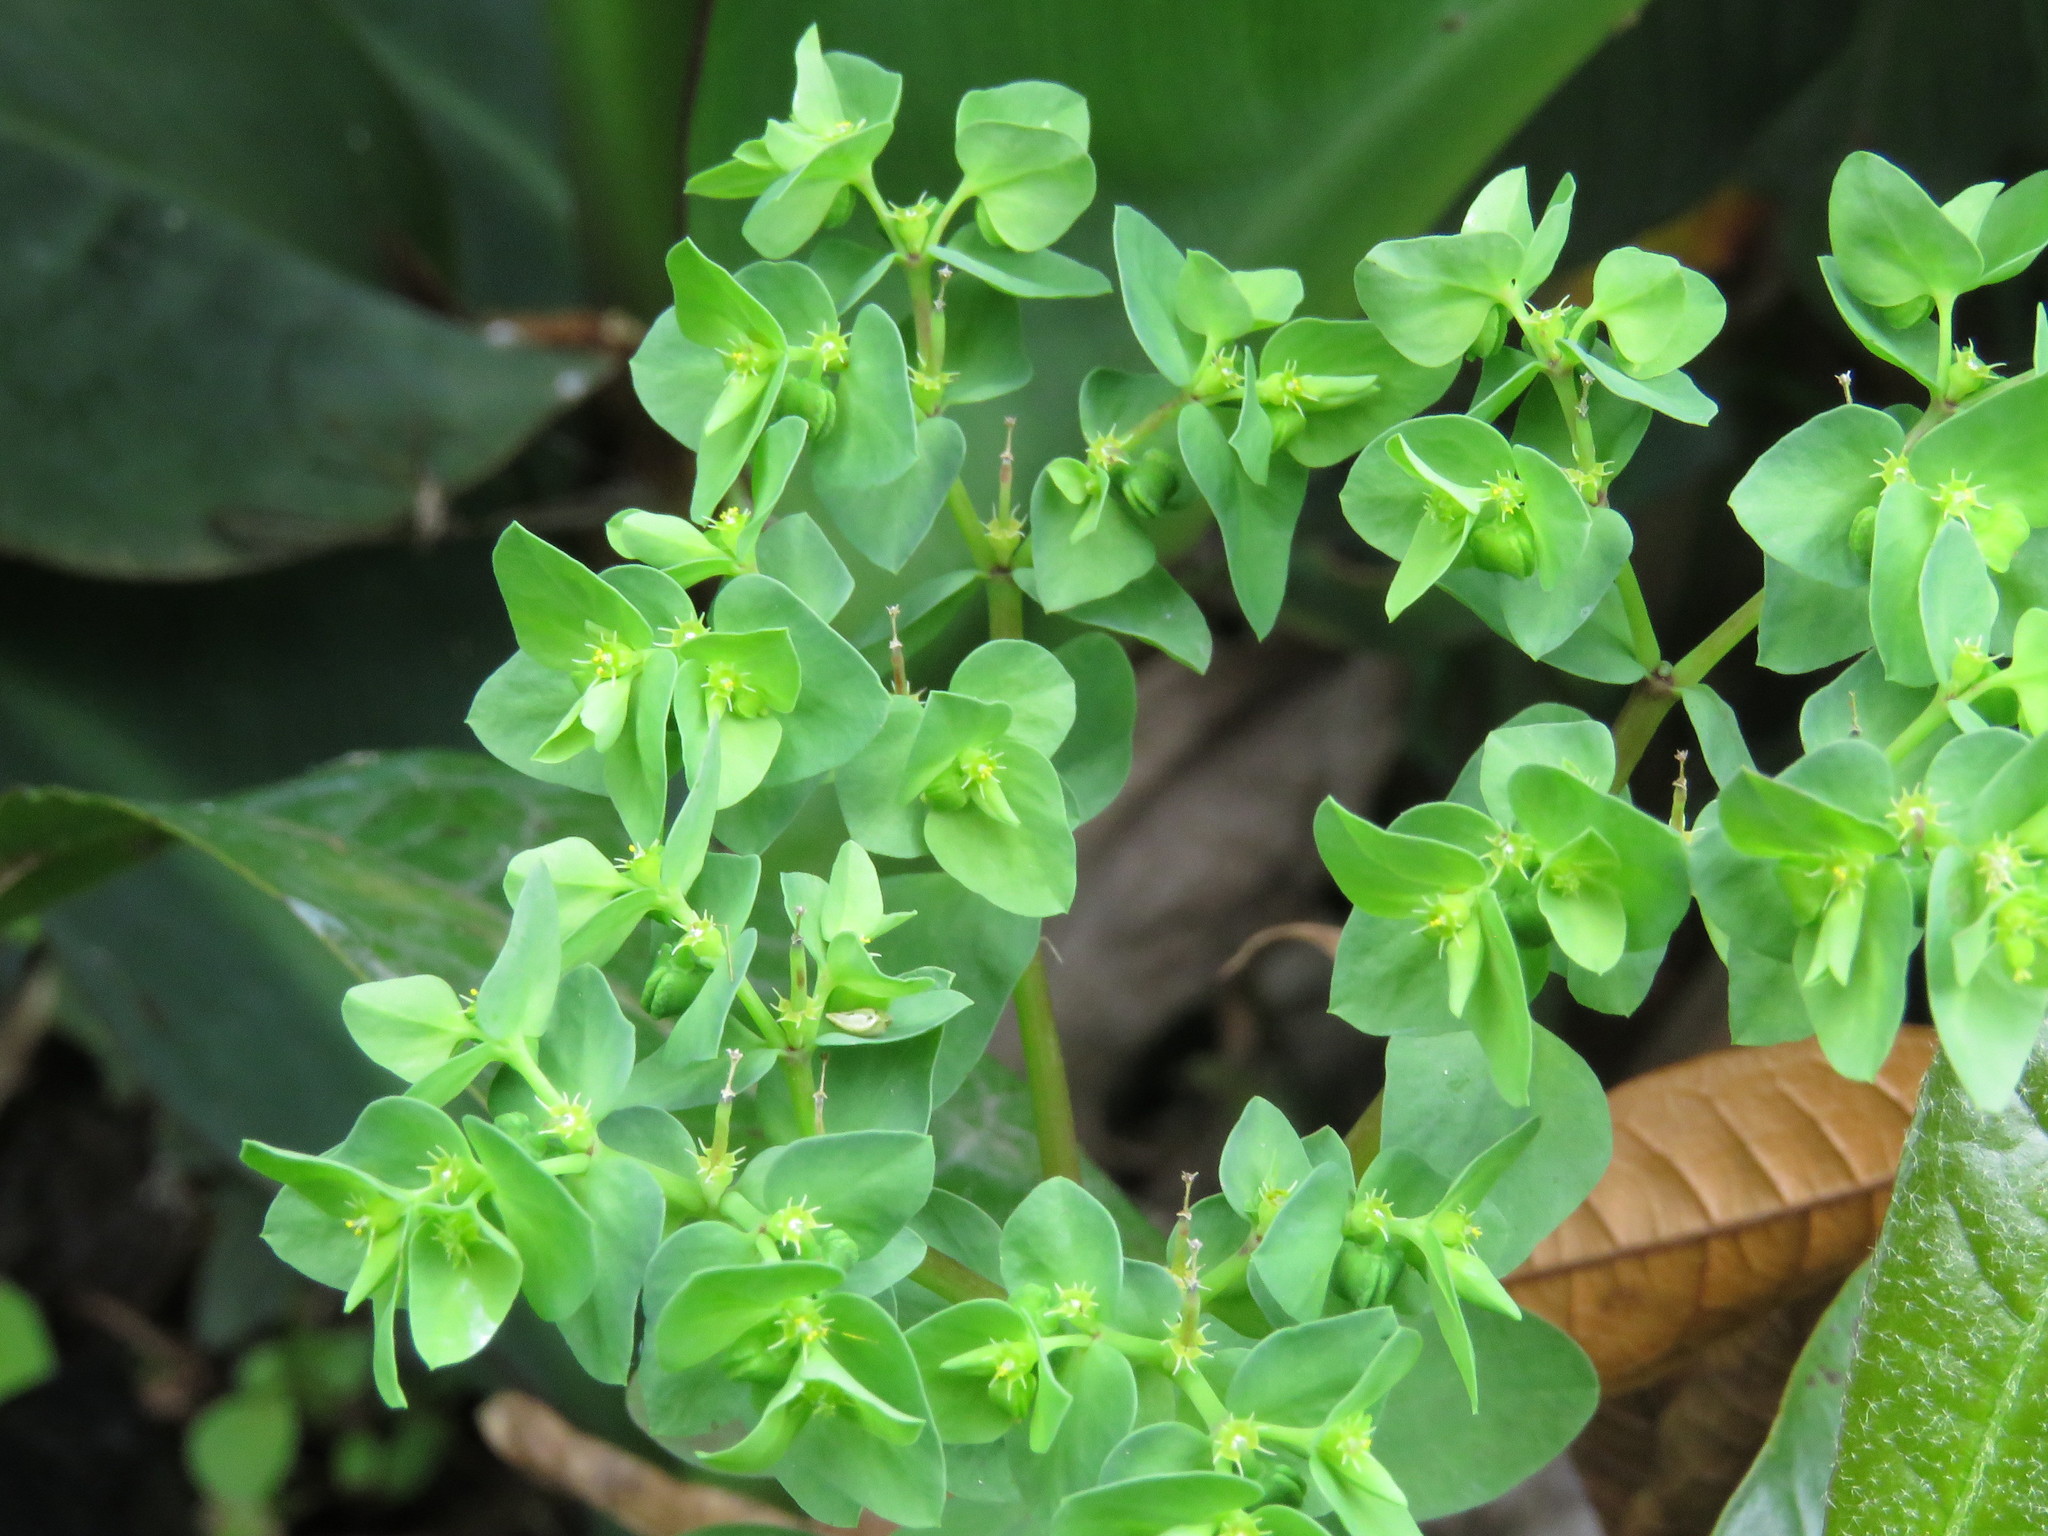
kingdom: Plantae
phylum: Tracheophyta
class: Magnoliopsida
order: Malpighiales
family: Euphorbiaceae
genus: Euphorbia
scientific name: Euphorbia peplus
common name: Petty spurge
